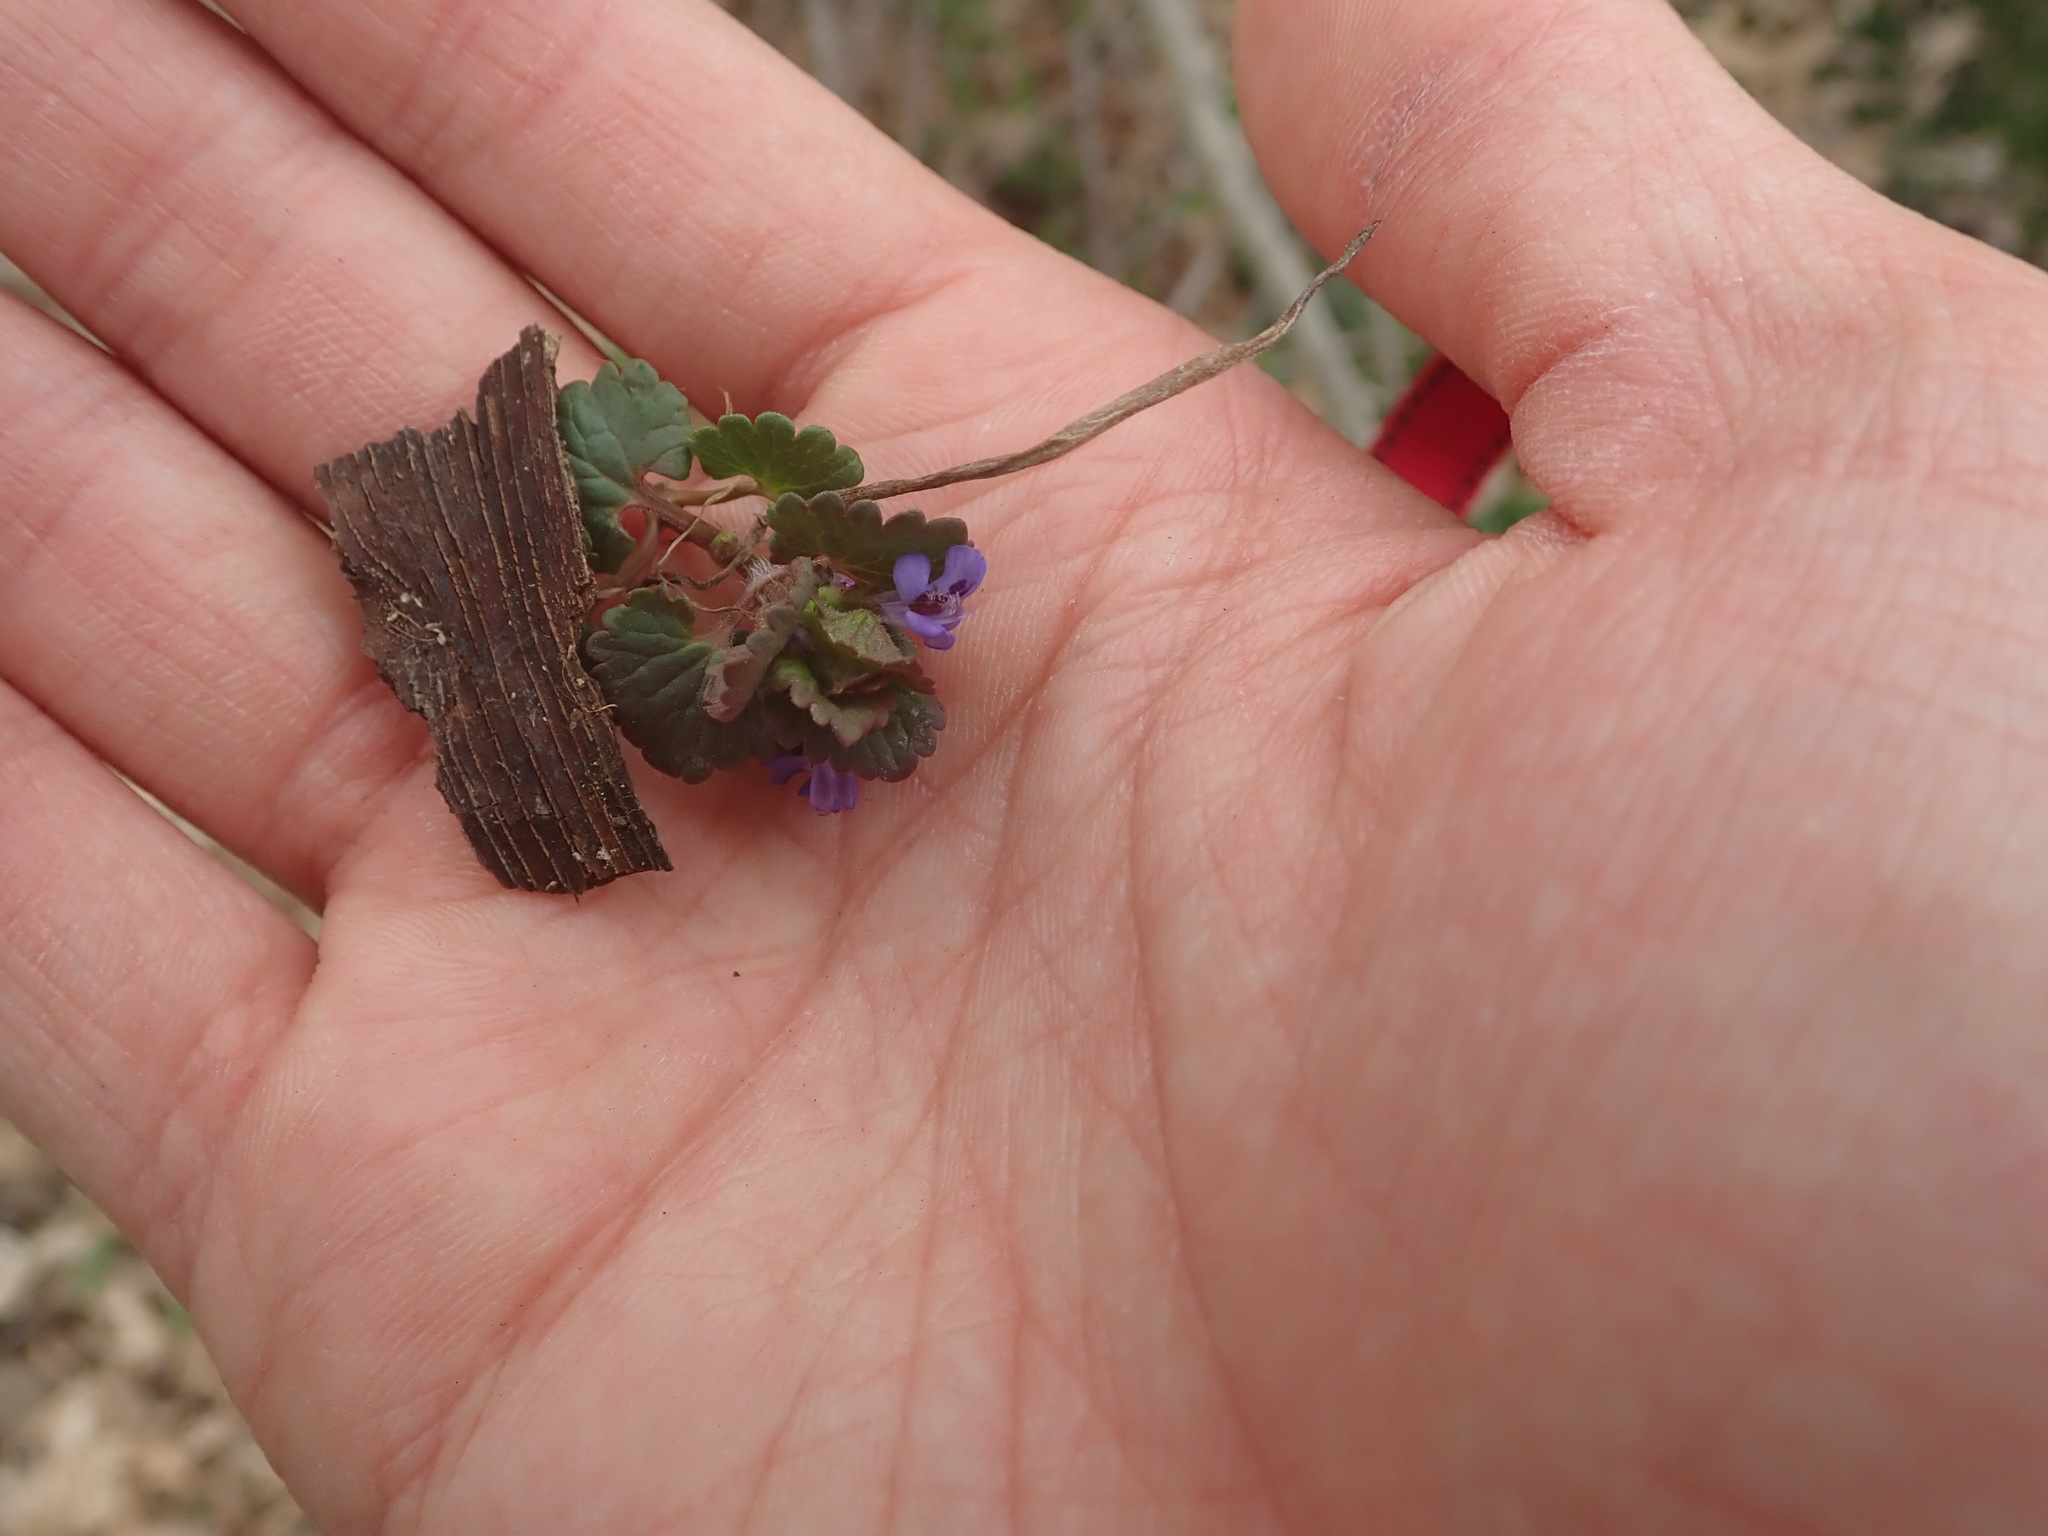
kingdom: Plantae
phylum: Tracheophyta
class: Magnoliopsida
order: Lamiales
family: Lamiaceae
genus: Glechoma
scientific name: Glechoma hederacea
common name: Ground ivy
